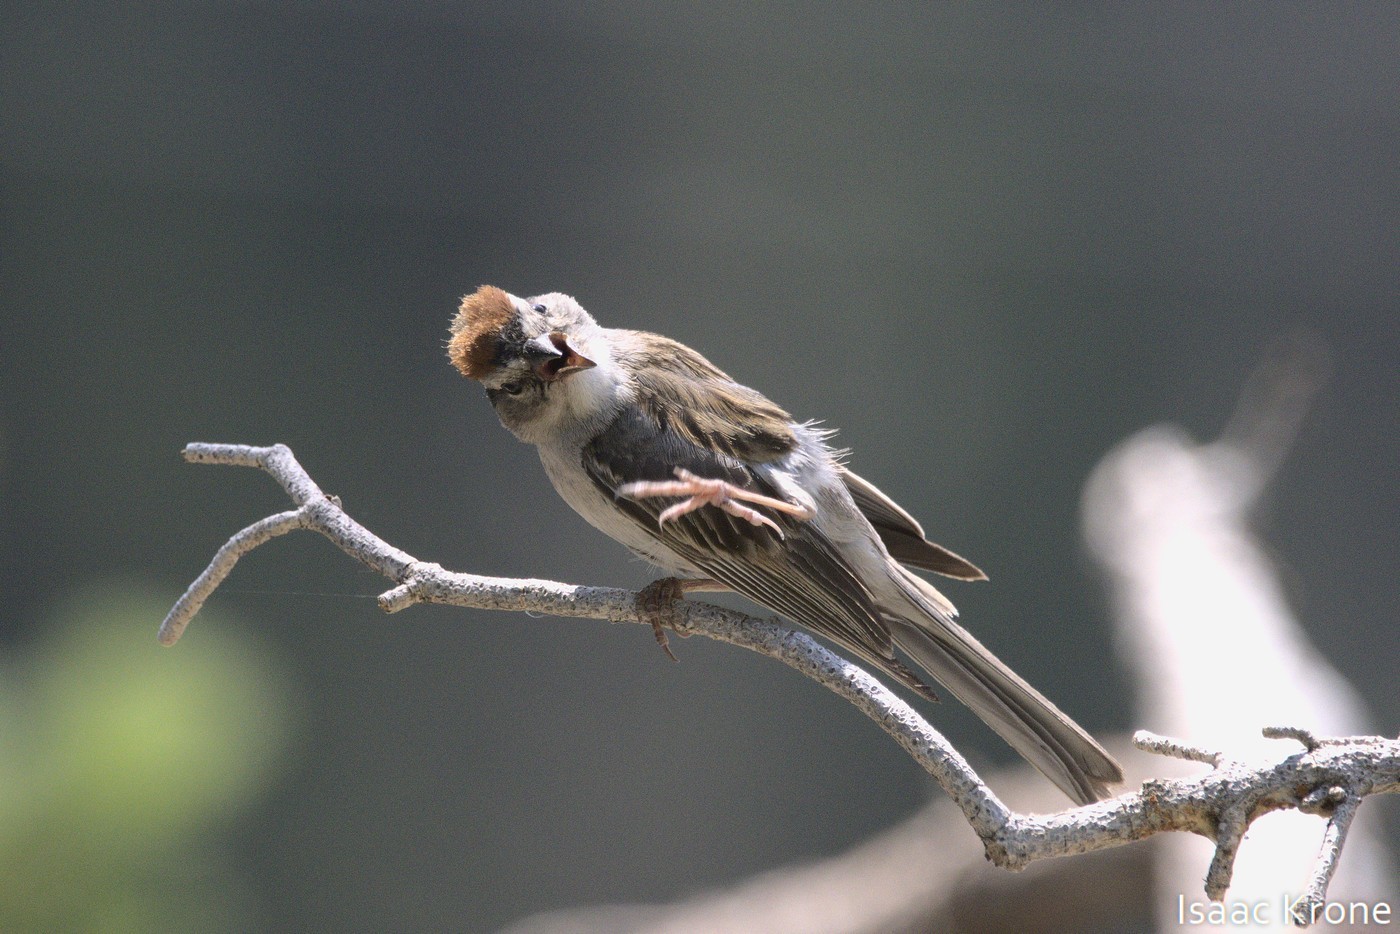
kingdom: Animalia
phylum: Chordata
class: Aves
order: Passeriformes
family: Passerellidae
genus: Spizella
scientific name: Spizella passerina
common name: Chipping sparrow
